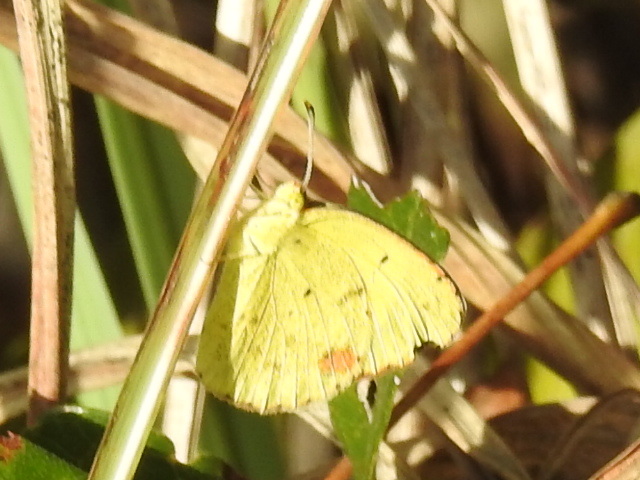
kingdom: Animalia
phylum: Arthropoda
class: Insecta
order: Lepidoptera
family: Pieridae
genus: Pyrisitia
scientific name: Pyrisitia lisa
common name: Little yellow
